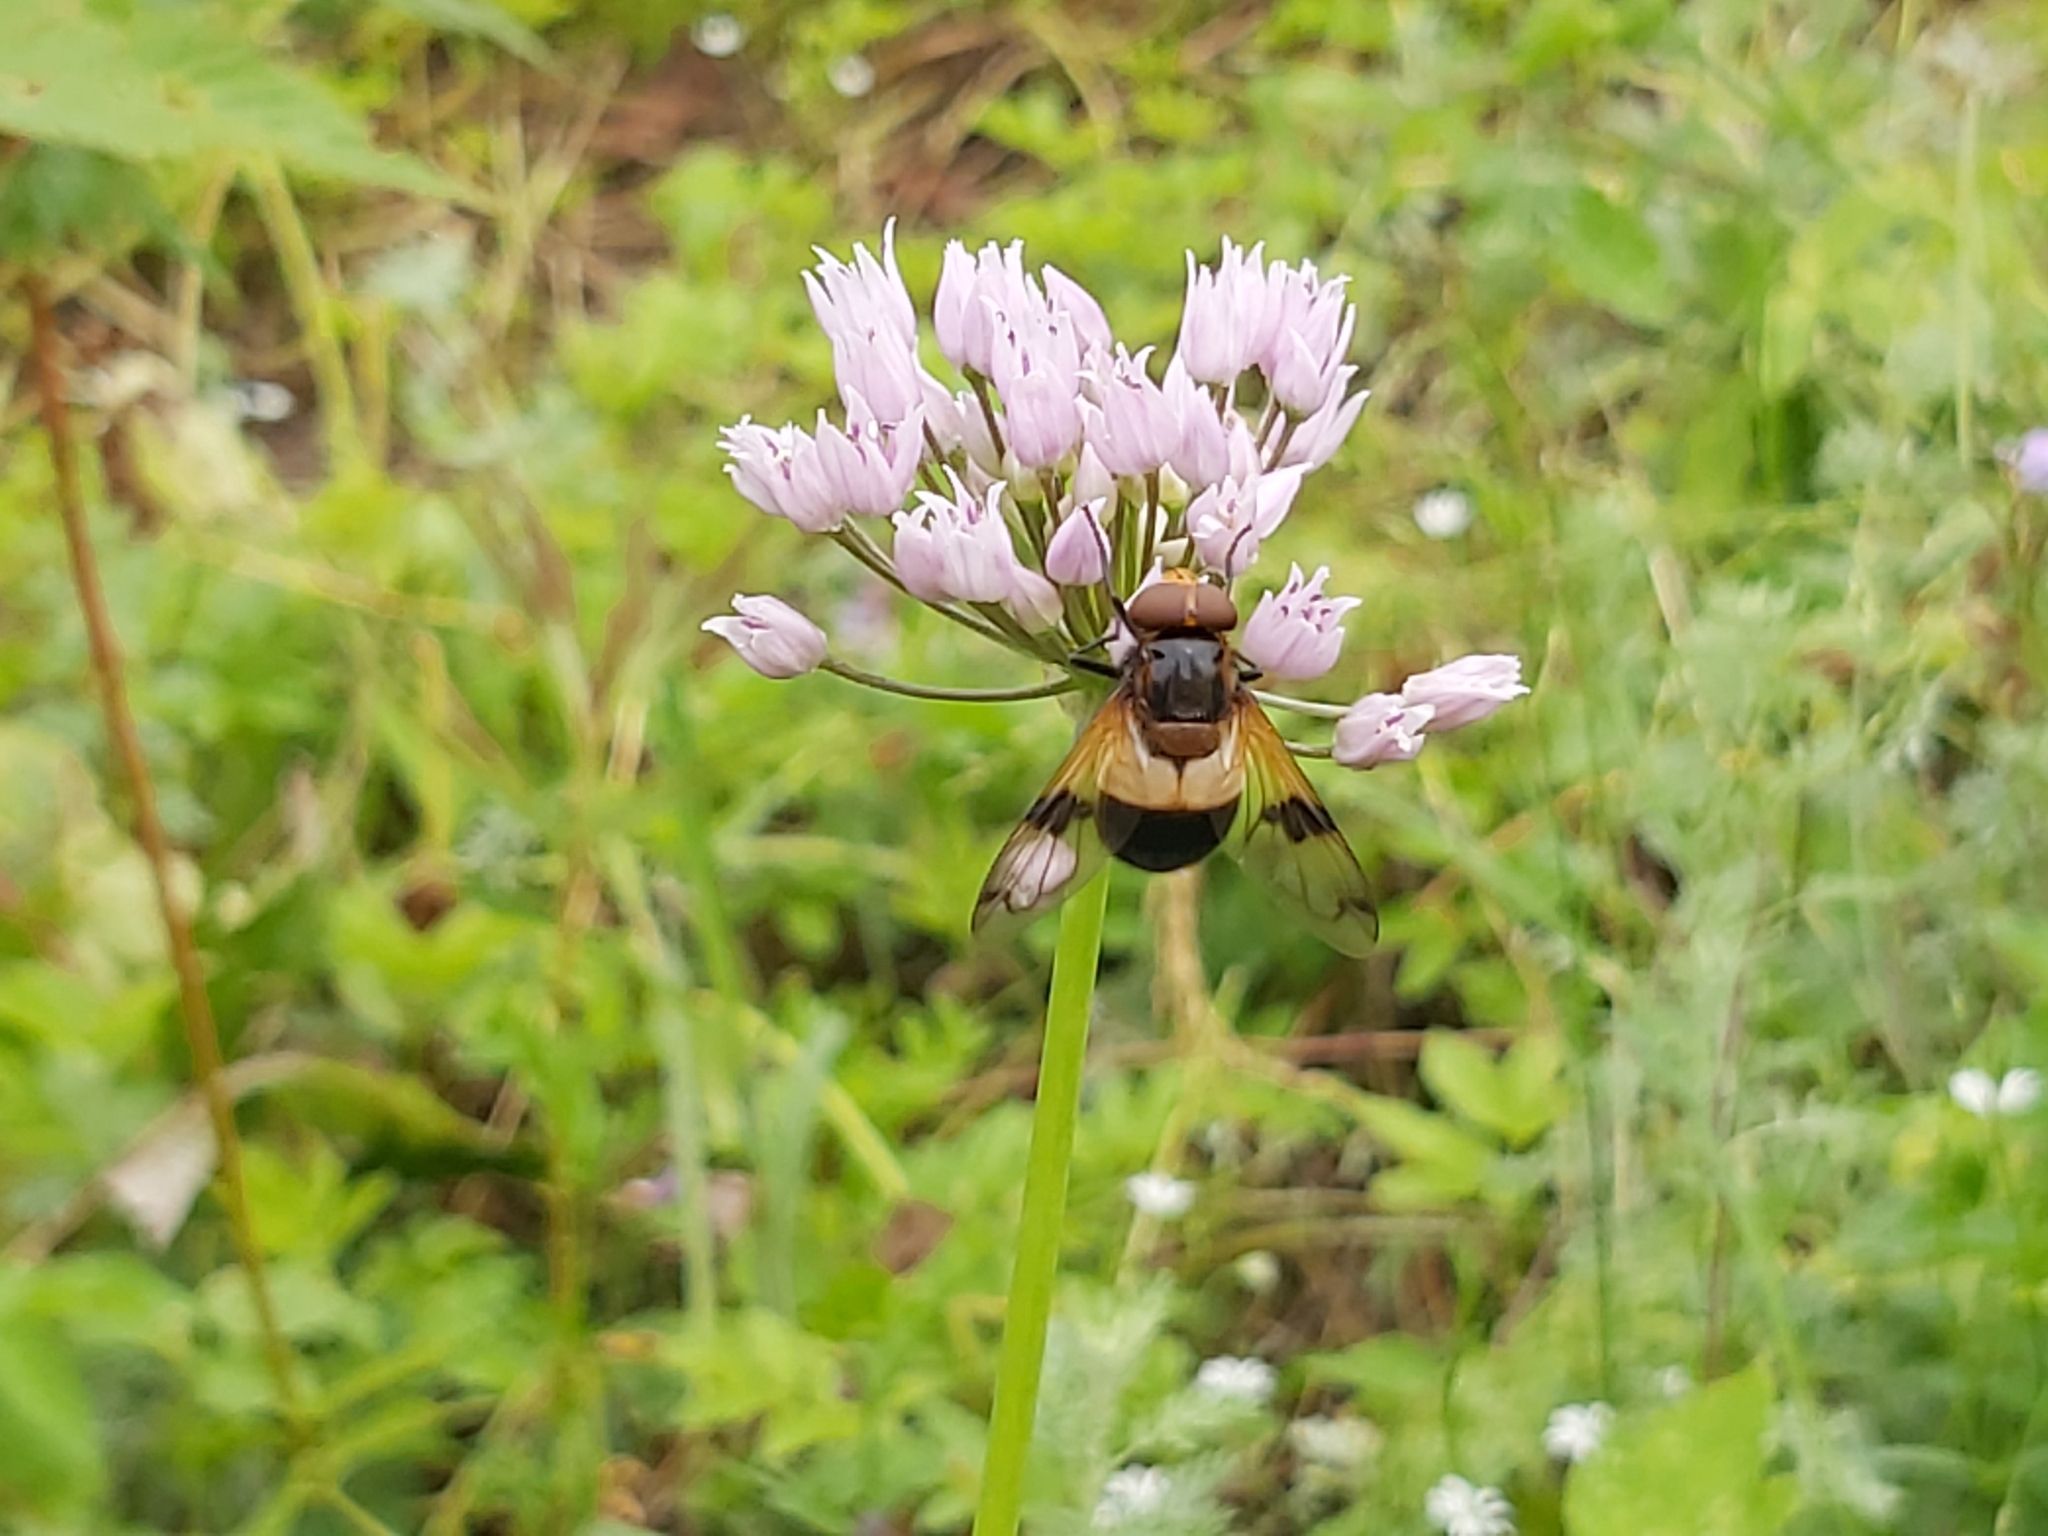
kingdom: Animalia
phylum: Arthropoda
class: Insecta
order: Diptera
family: Syrphidae
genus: Volucella
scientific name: Volucella pellucens
